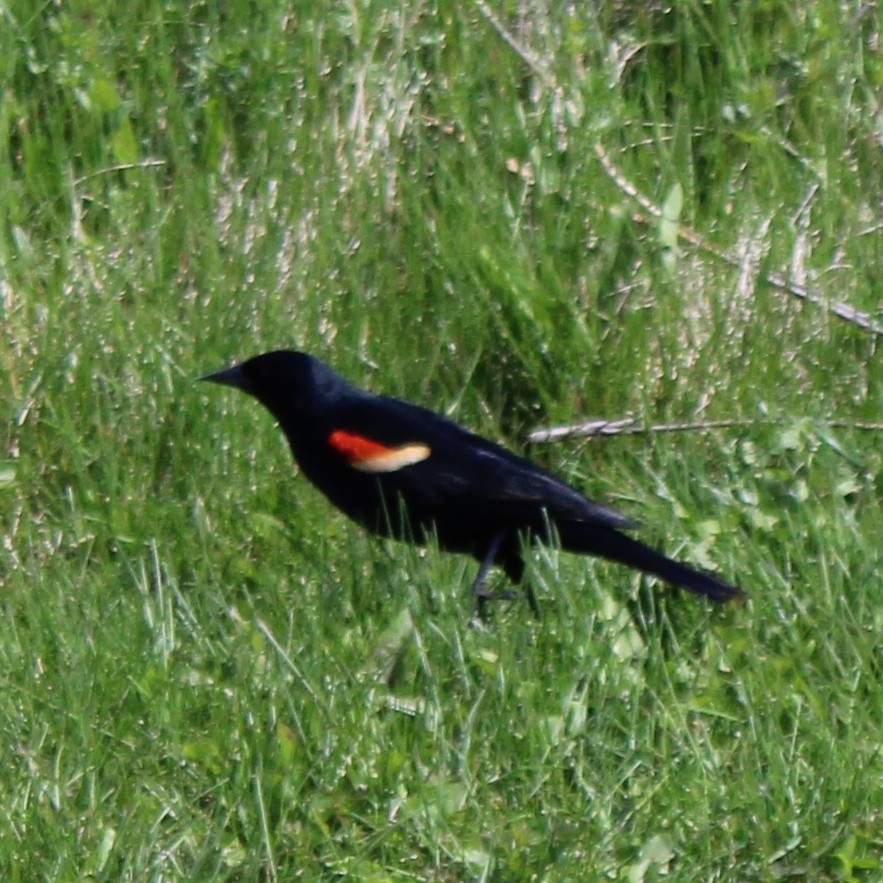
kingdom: Animalia
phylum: Chordata
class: Aves
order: Passeriformes
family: Icteridae
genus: Agelaius
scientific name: Agelaius phoeniceus
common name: Red-winged blackbird
